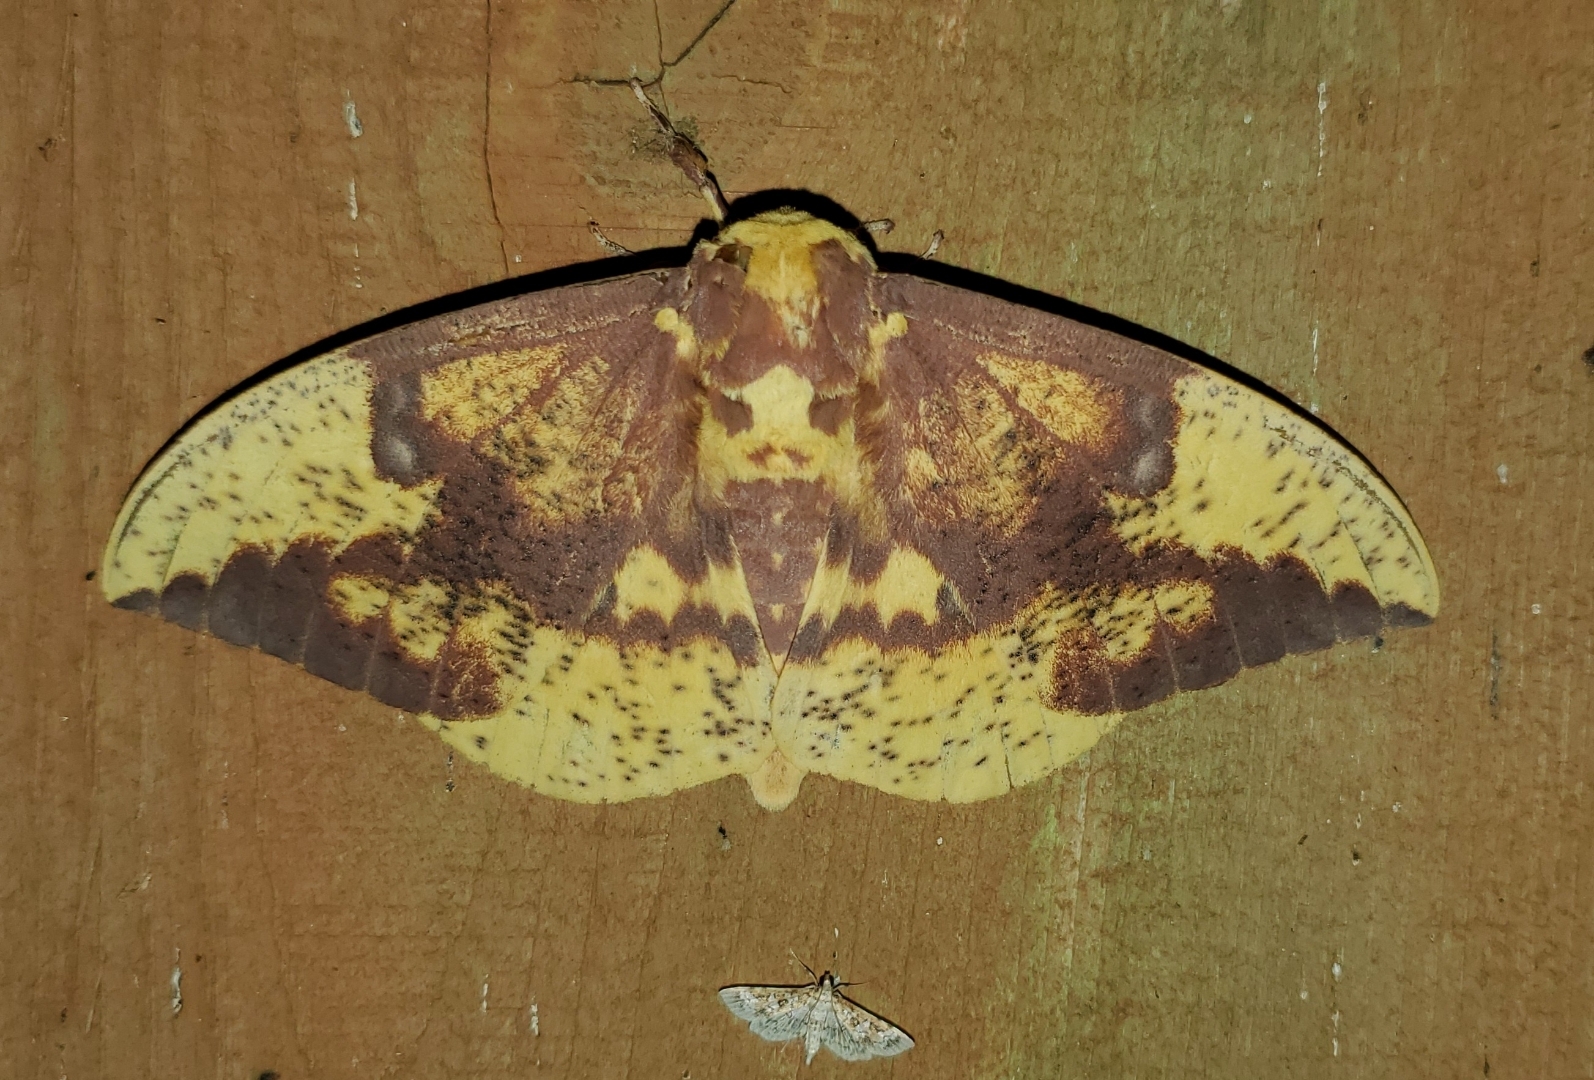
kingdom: Animalia
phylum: Arthropoda
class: Insecta
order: Lepidoptera
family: Saturniidae
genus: Eacles
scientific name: Eacles imperialis
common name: Imperial moth
